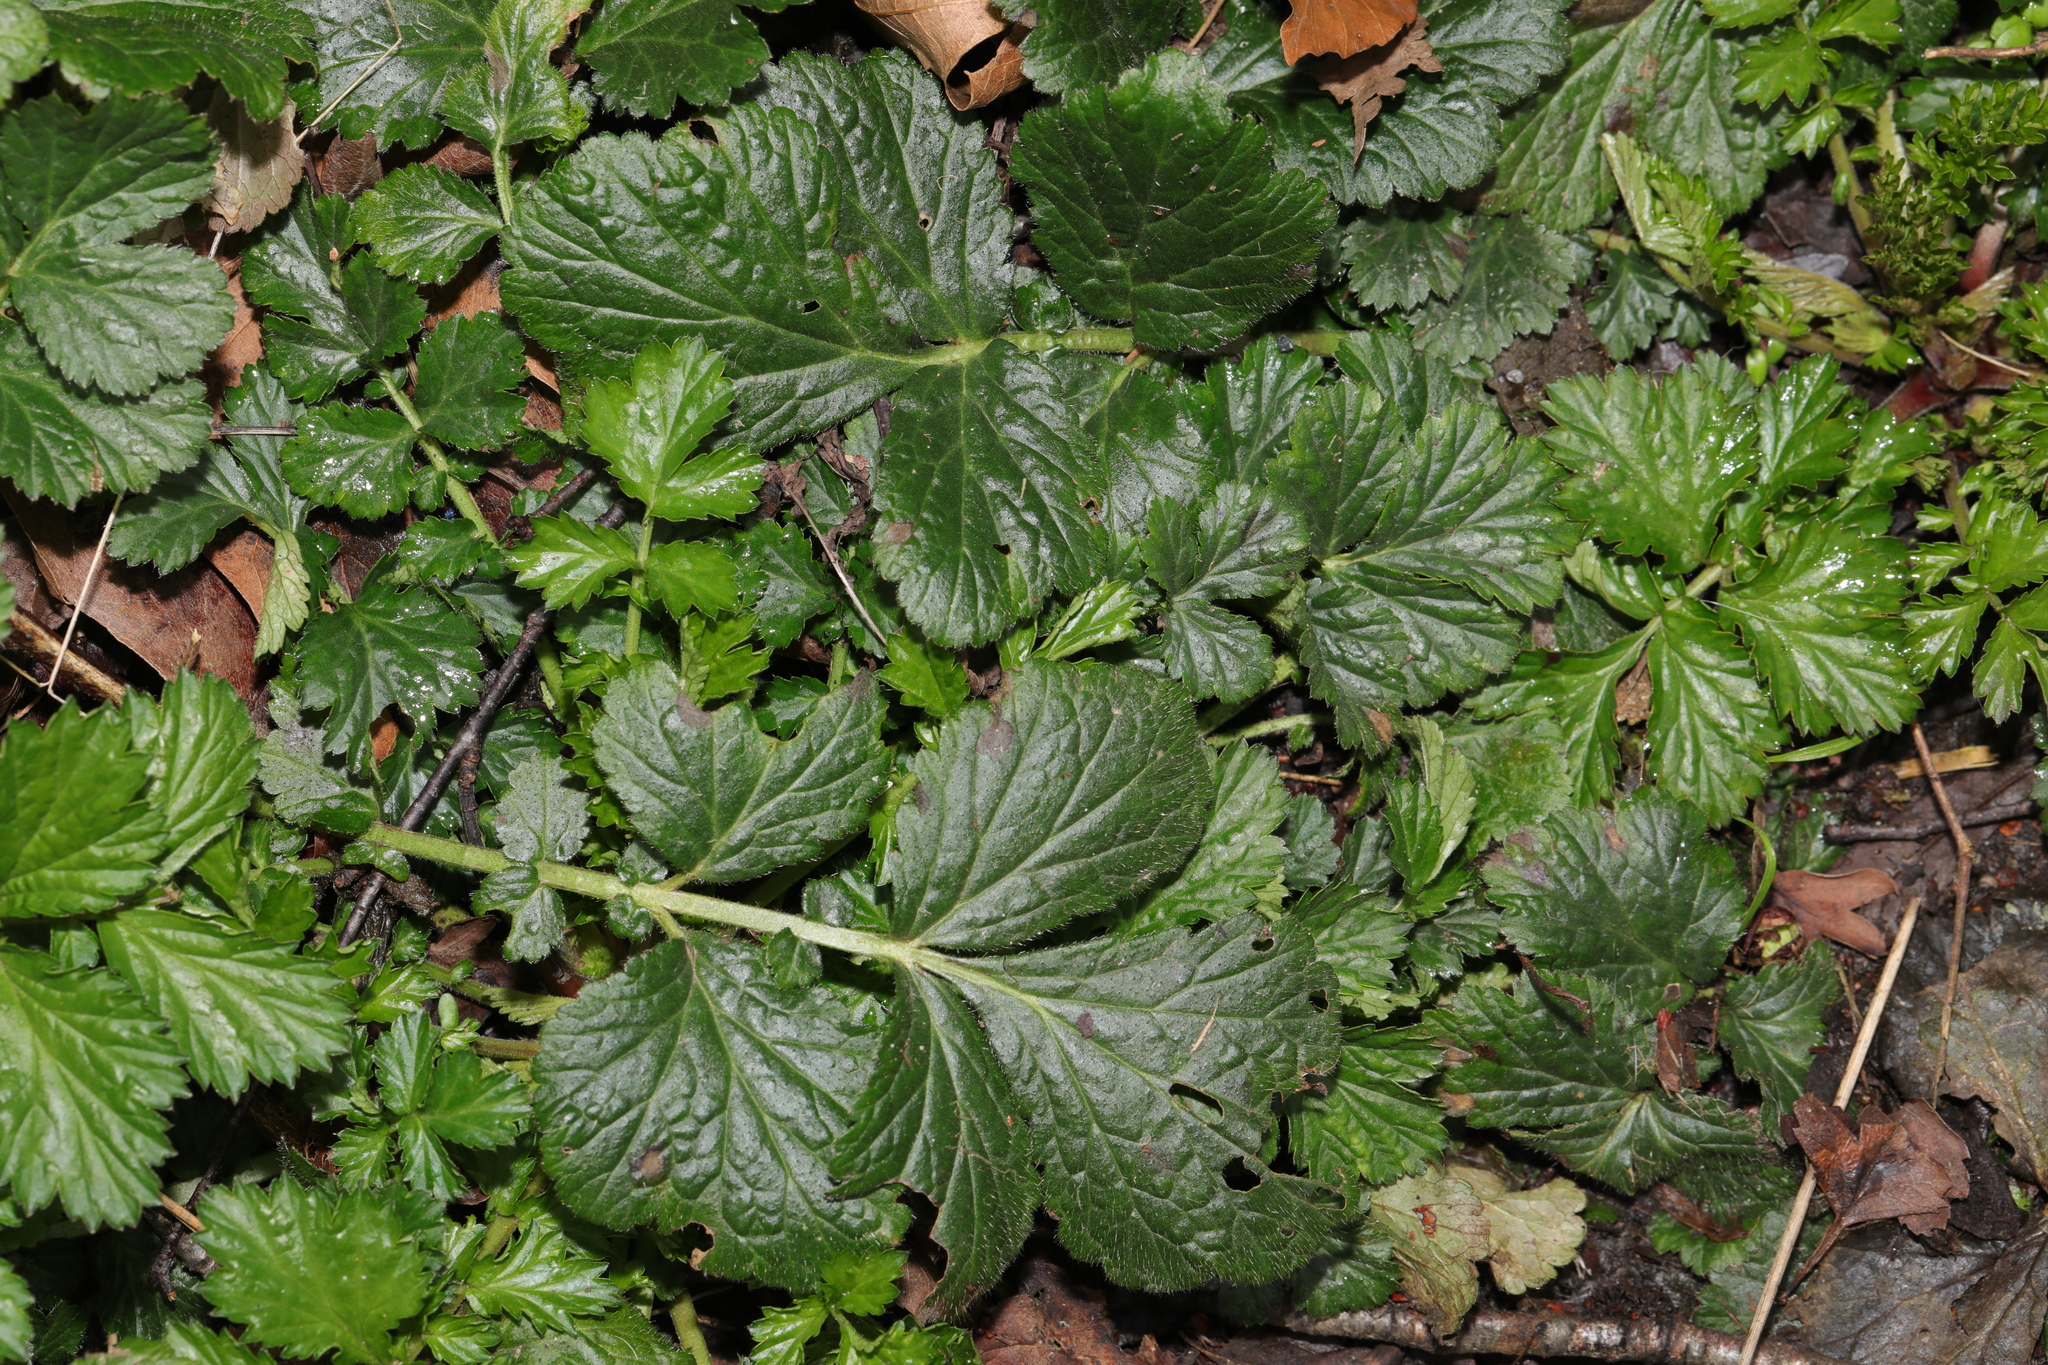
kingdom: Plantae
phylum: Tracheophyta
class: Magnoliopsida
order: Rosales
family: Rosaceae
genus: Geum
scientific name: Geum urbanum
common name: Wood avens
